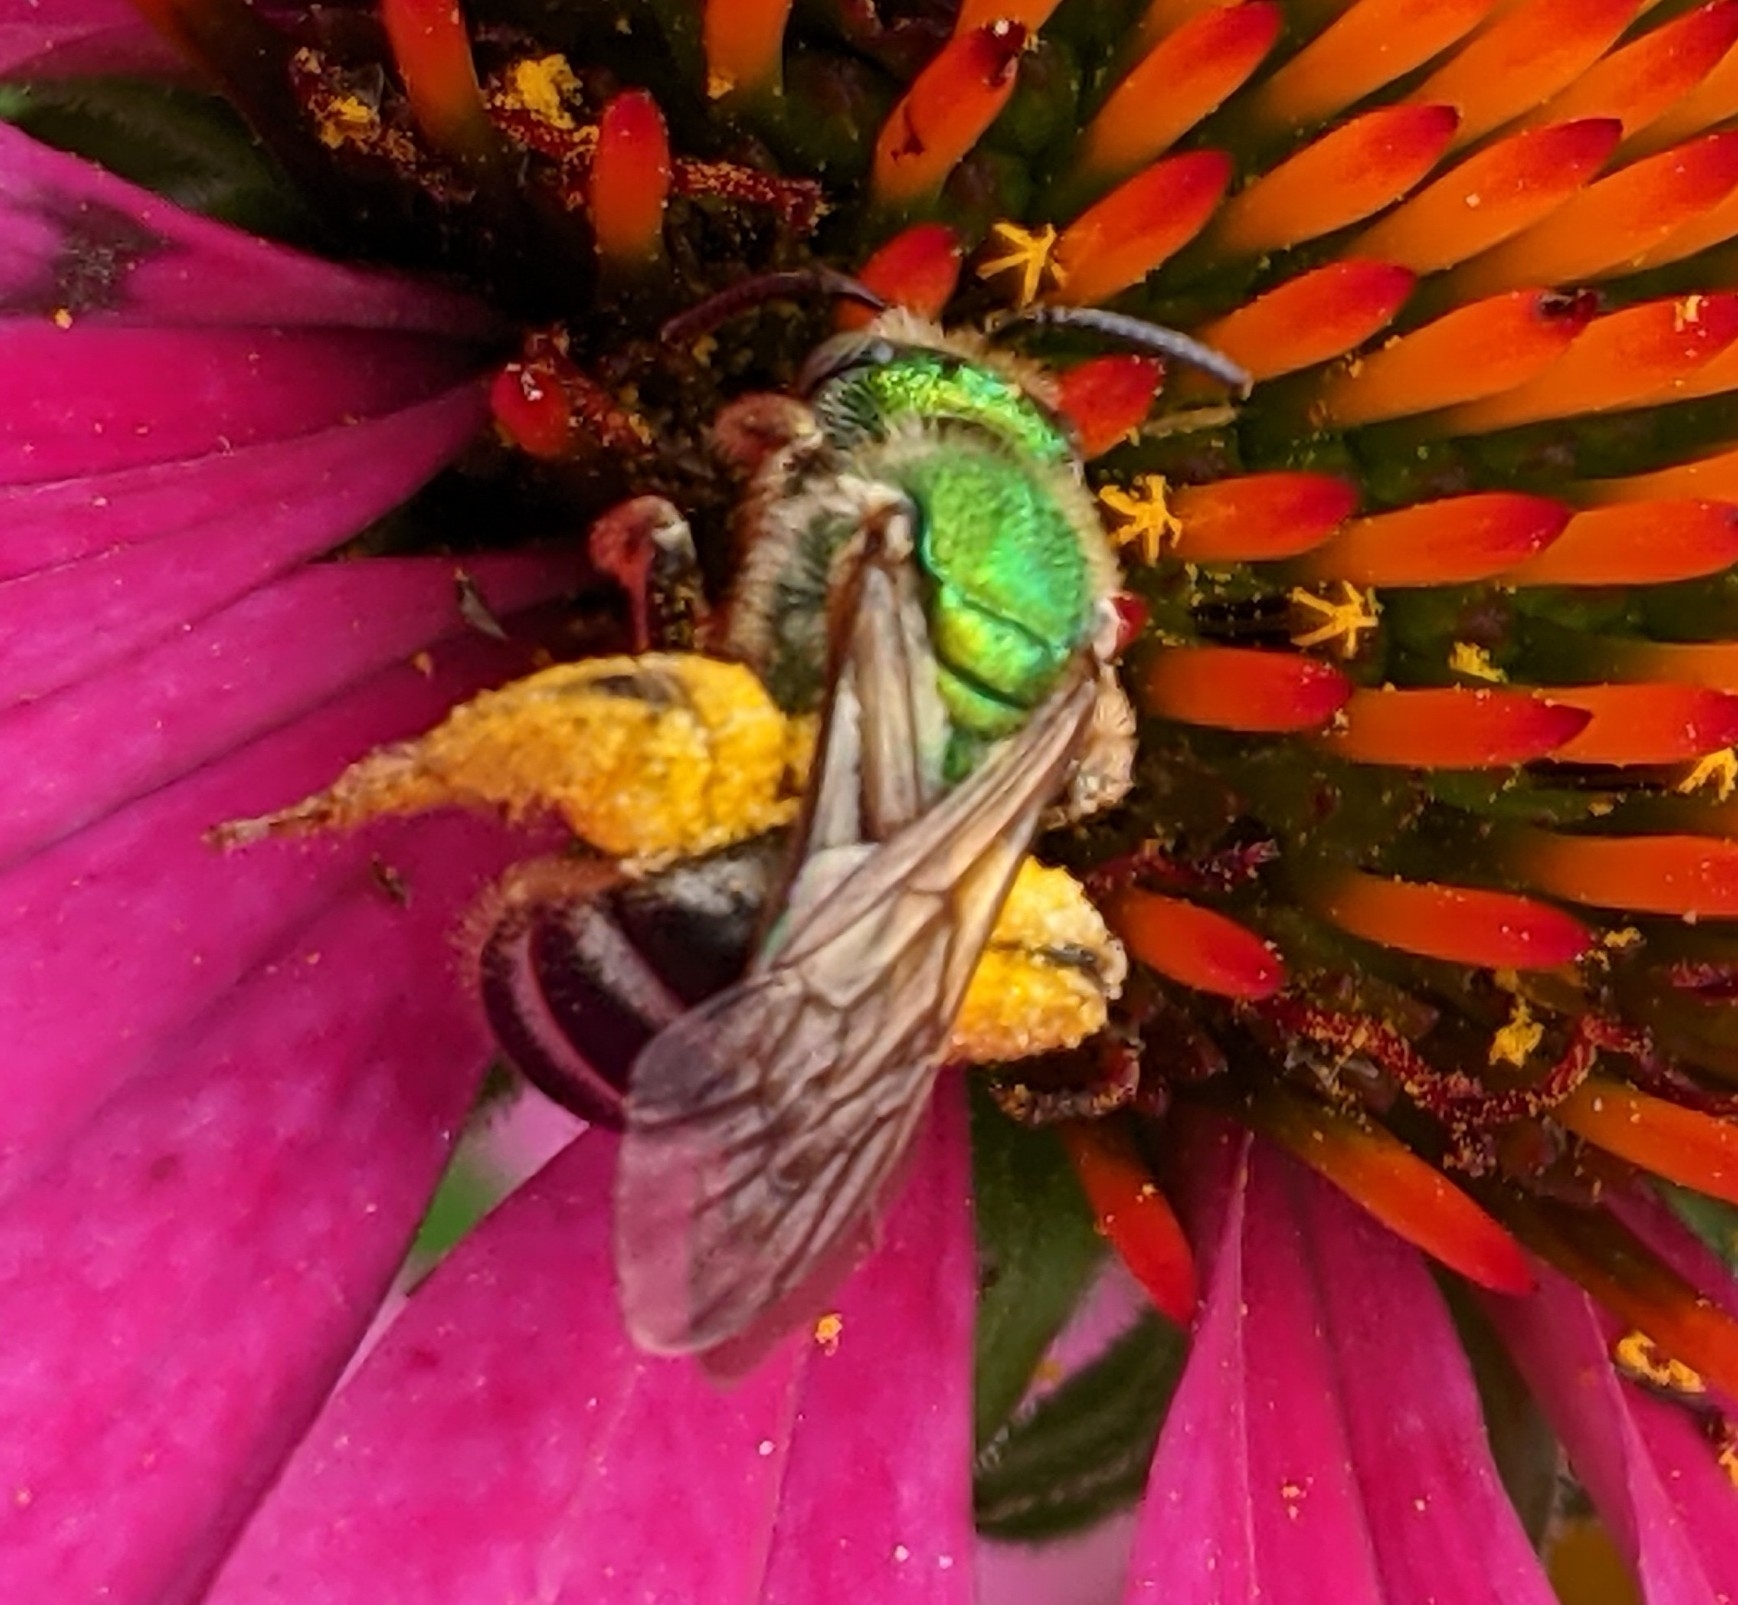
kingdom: Animalia
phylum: Arthropoda
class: Insecta
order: Hymenoptera
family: Halictidae
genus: Agapostemon
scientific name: Agapostemon virescens
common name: Bicolored striped sweat bee
